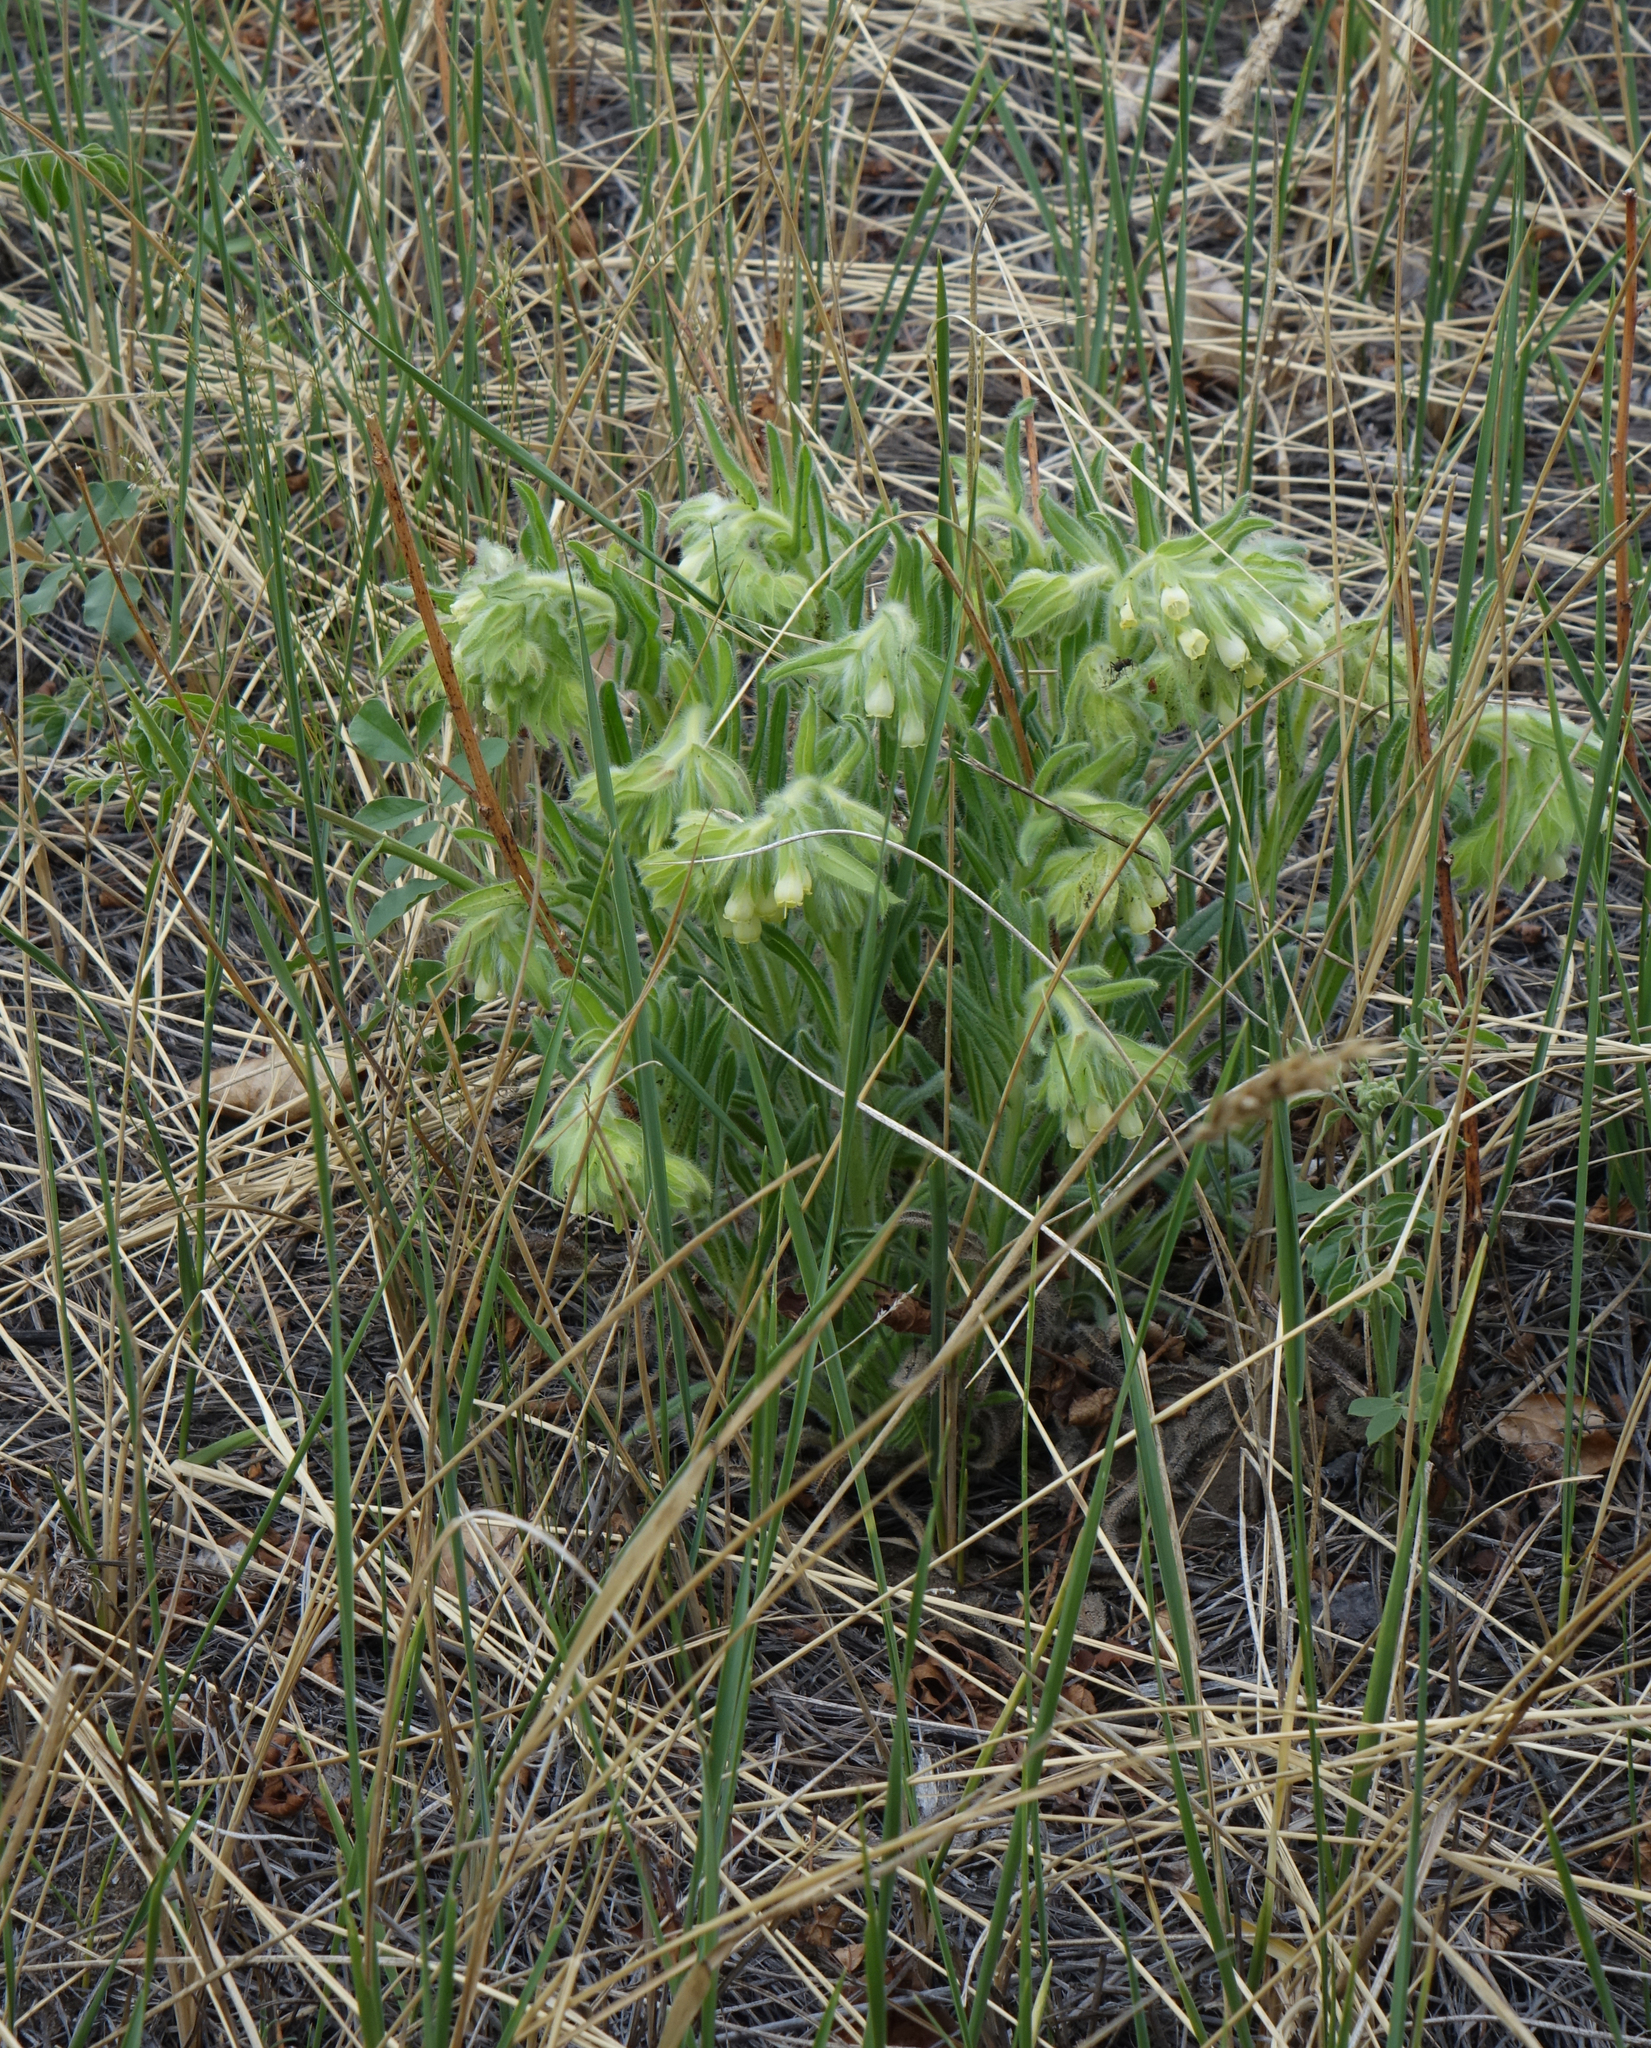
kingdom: Plantae
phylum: Tracheophyta
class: Magnoliopsida
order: Boraginales
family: Boraginaceae
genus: Onosma
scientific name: Onosma gmelinii
